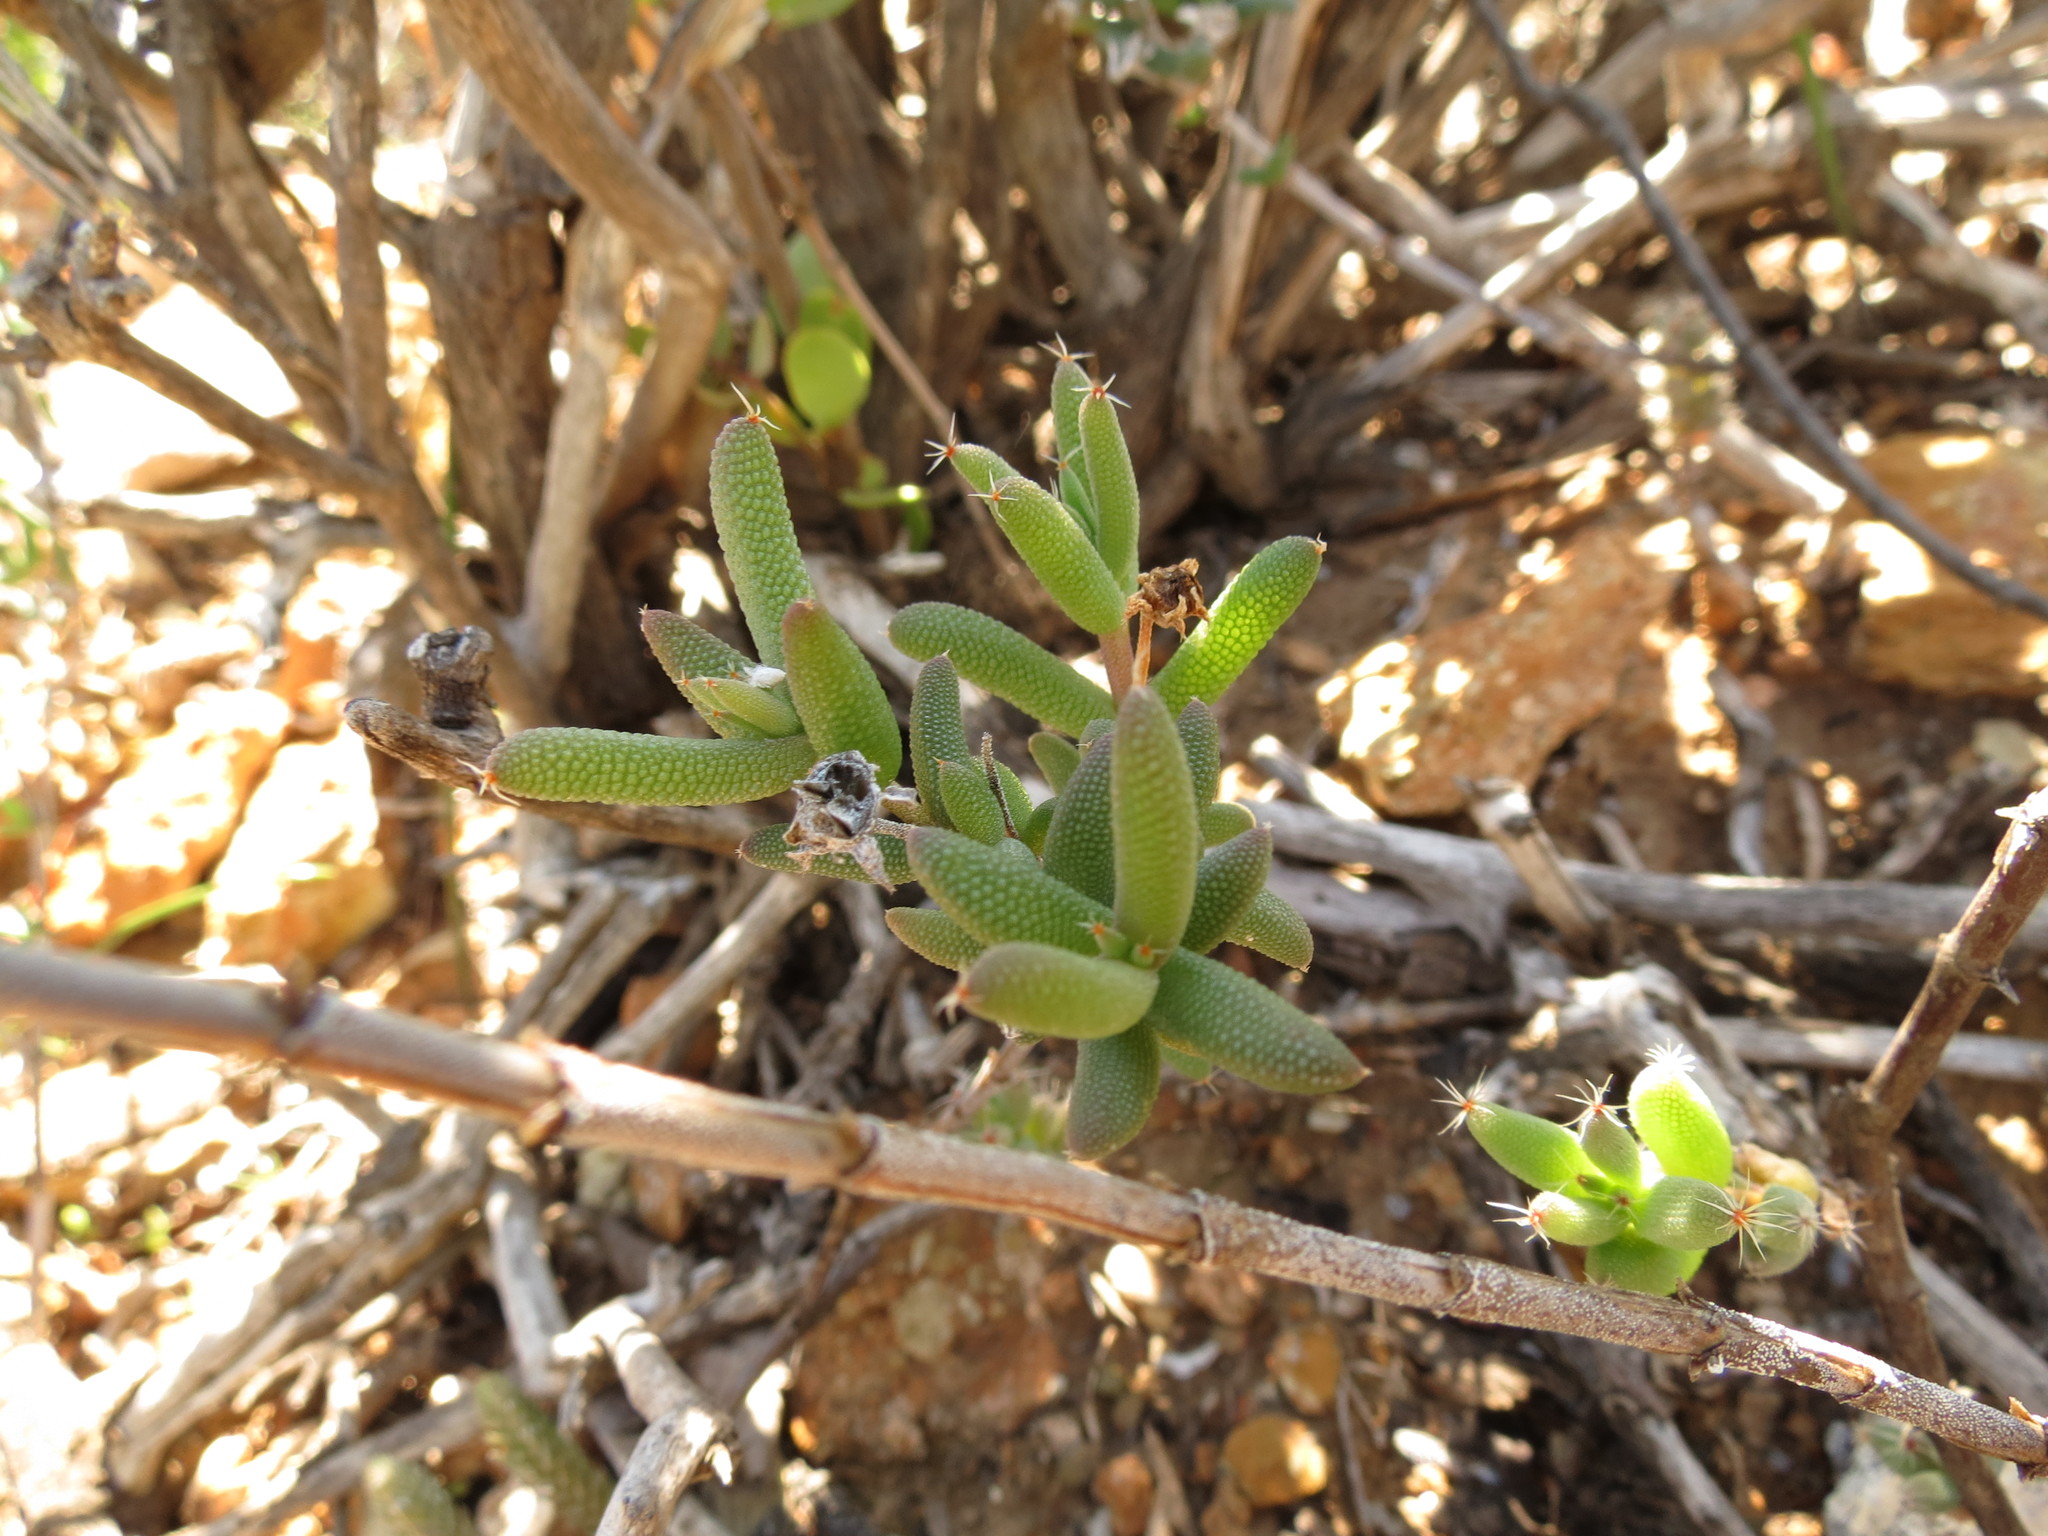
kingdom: Plantae
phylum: Tracheophyta
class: Magnoliopsida
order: Caryophyllales
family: Aizoaceae
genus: Trichodiadema
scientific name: Trichodiadema pomeridianum
